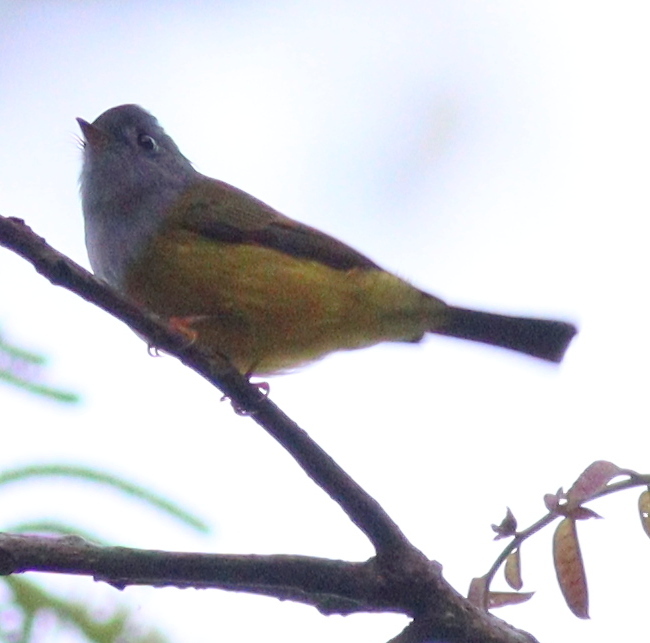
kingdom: Animalia
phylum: Chordata
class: Aves
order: Passeriformes
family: Stenostiridae
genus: Culicicapa
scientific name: Culicicapa ceylonensis
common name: Grey-headed canary-flycatcher
